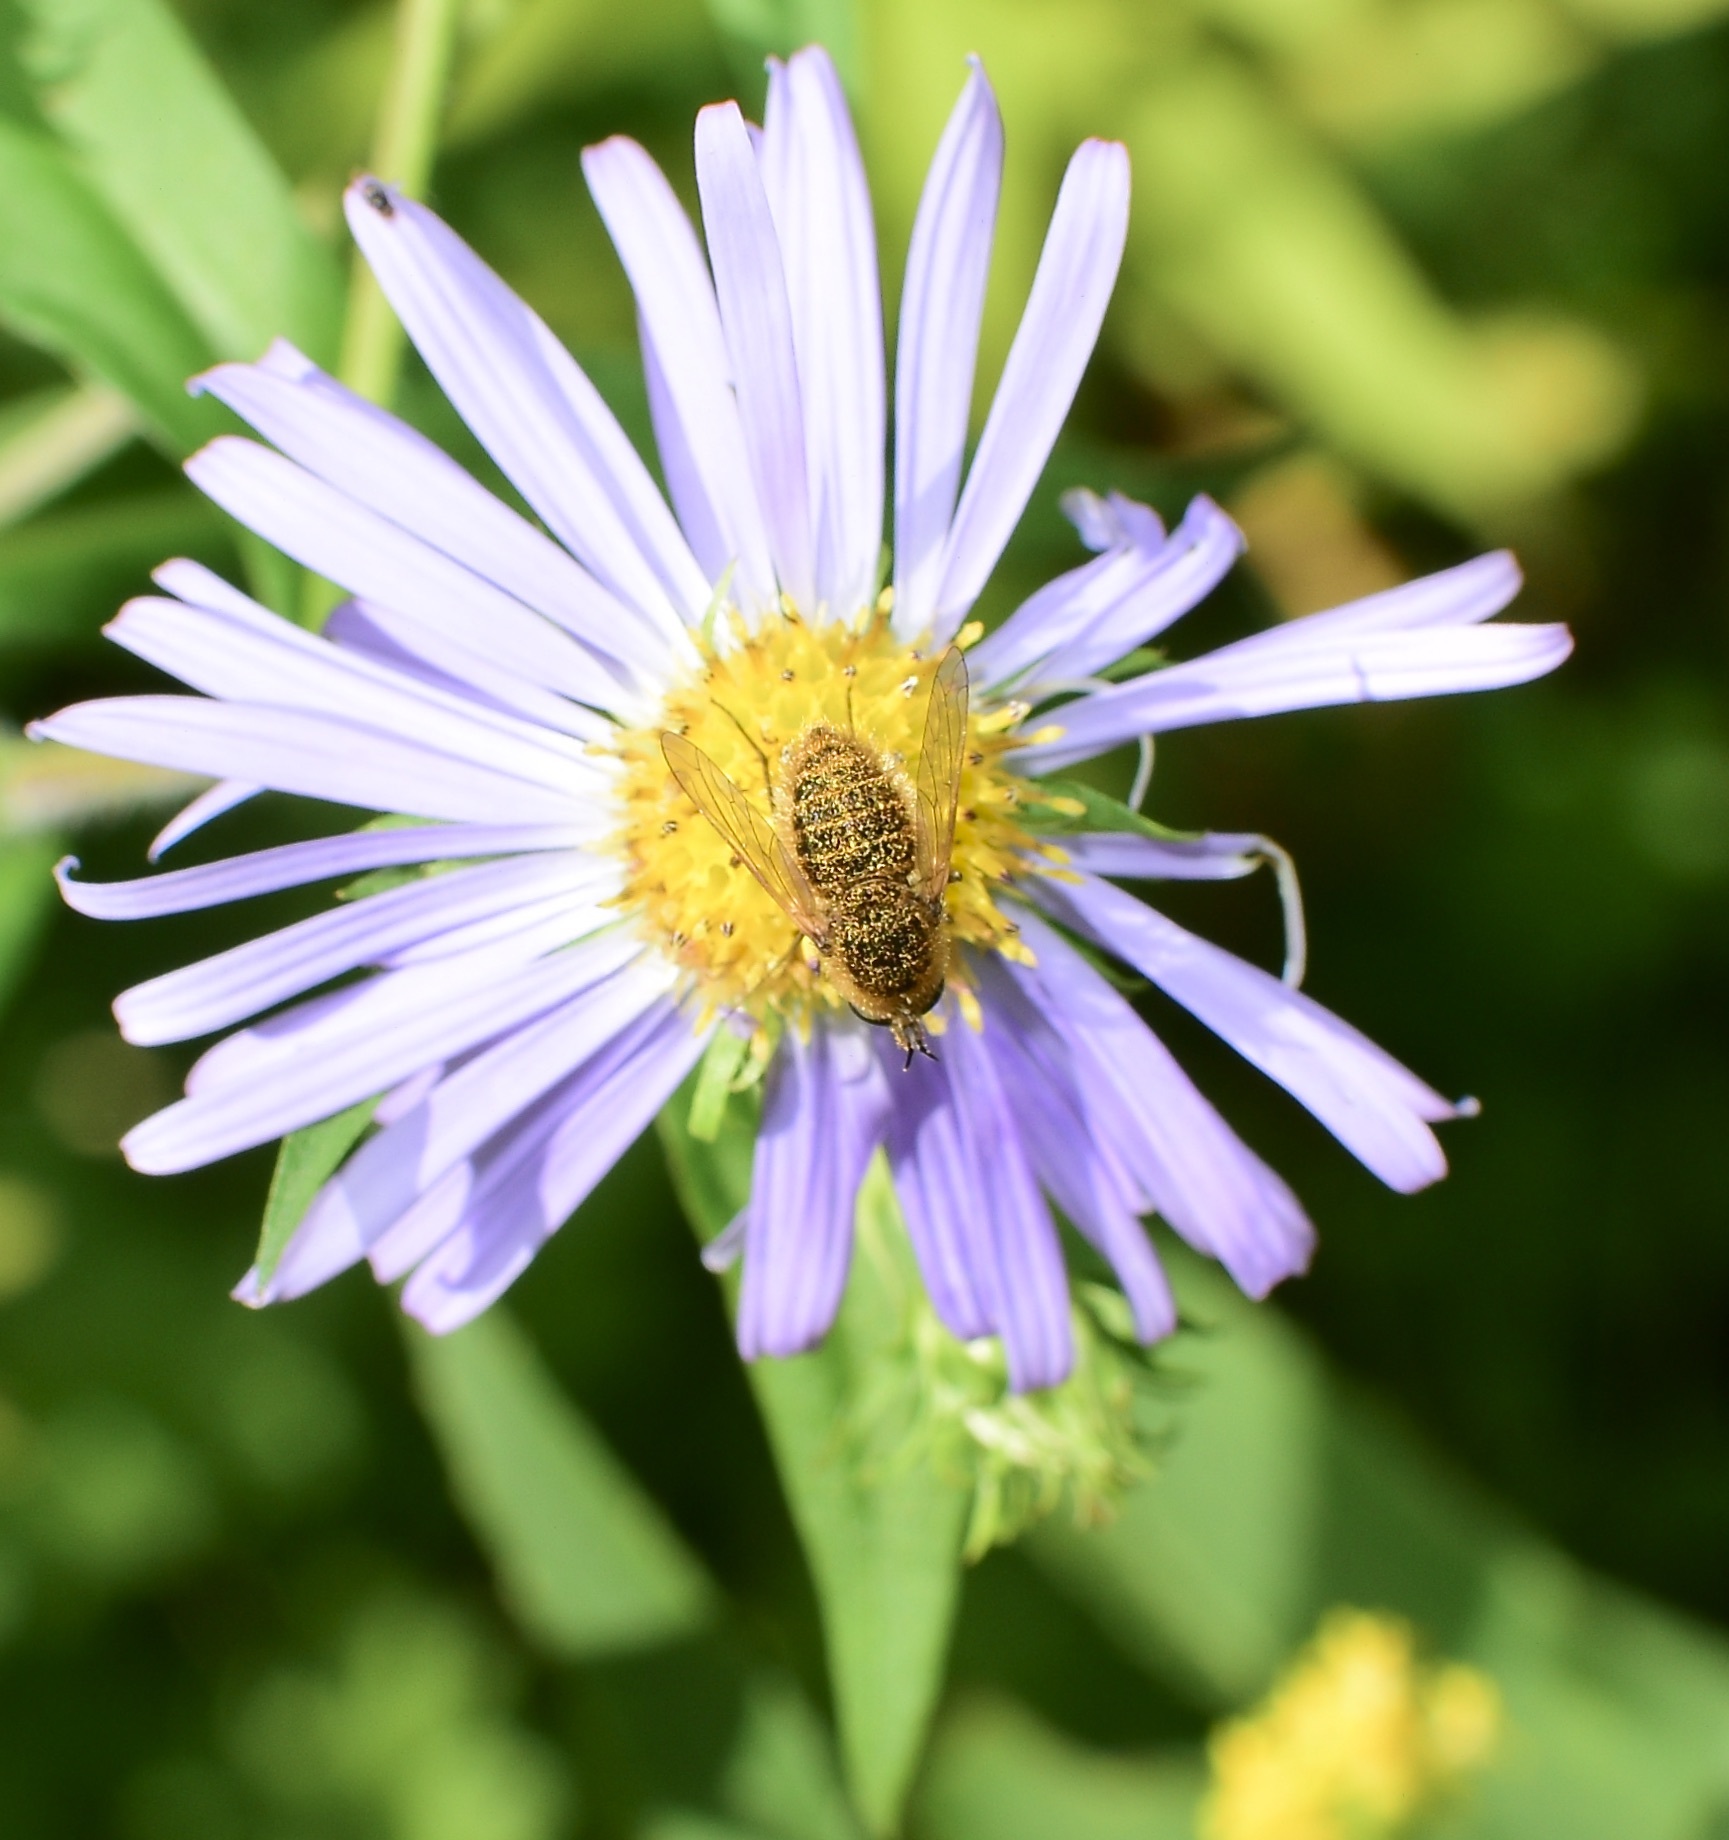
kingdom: Animalia
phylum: Arthropoda
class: Insecta
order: Diptera
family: Bombyliidae
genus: Sparnopolius
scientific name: Sparnopolius confusus
